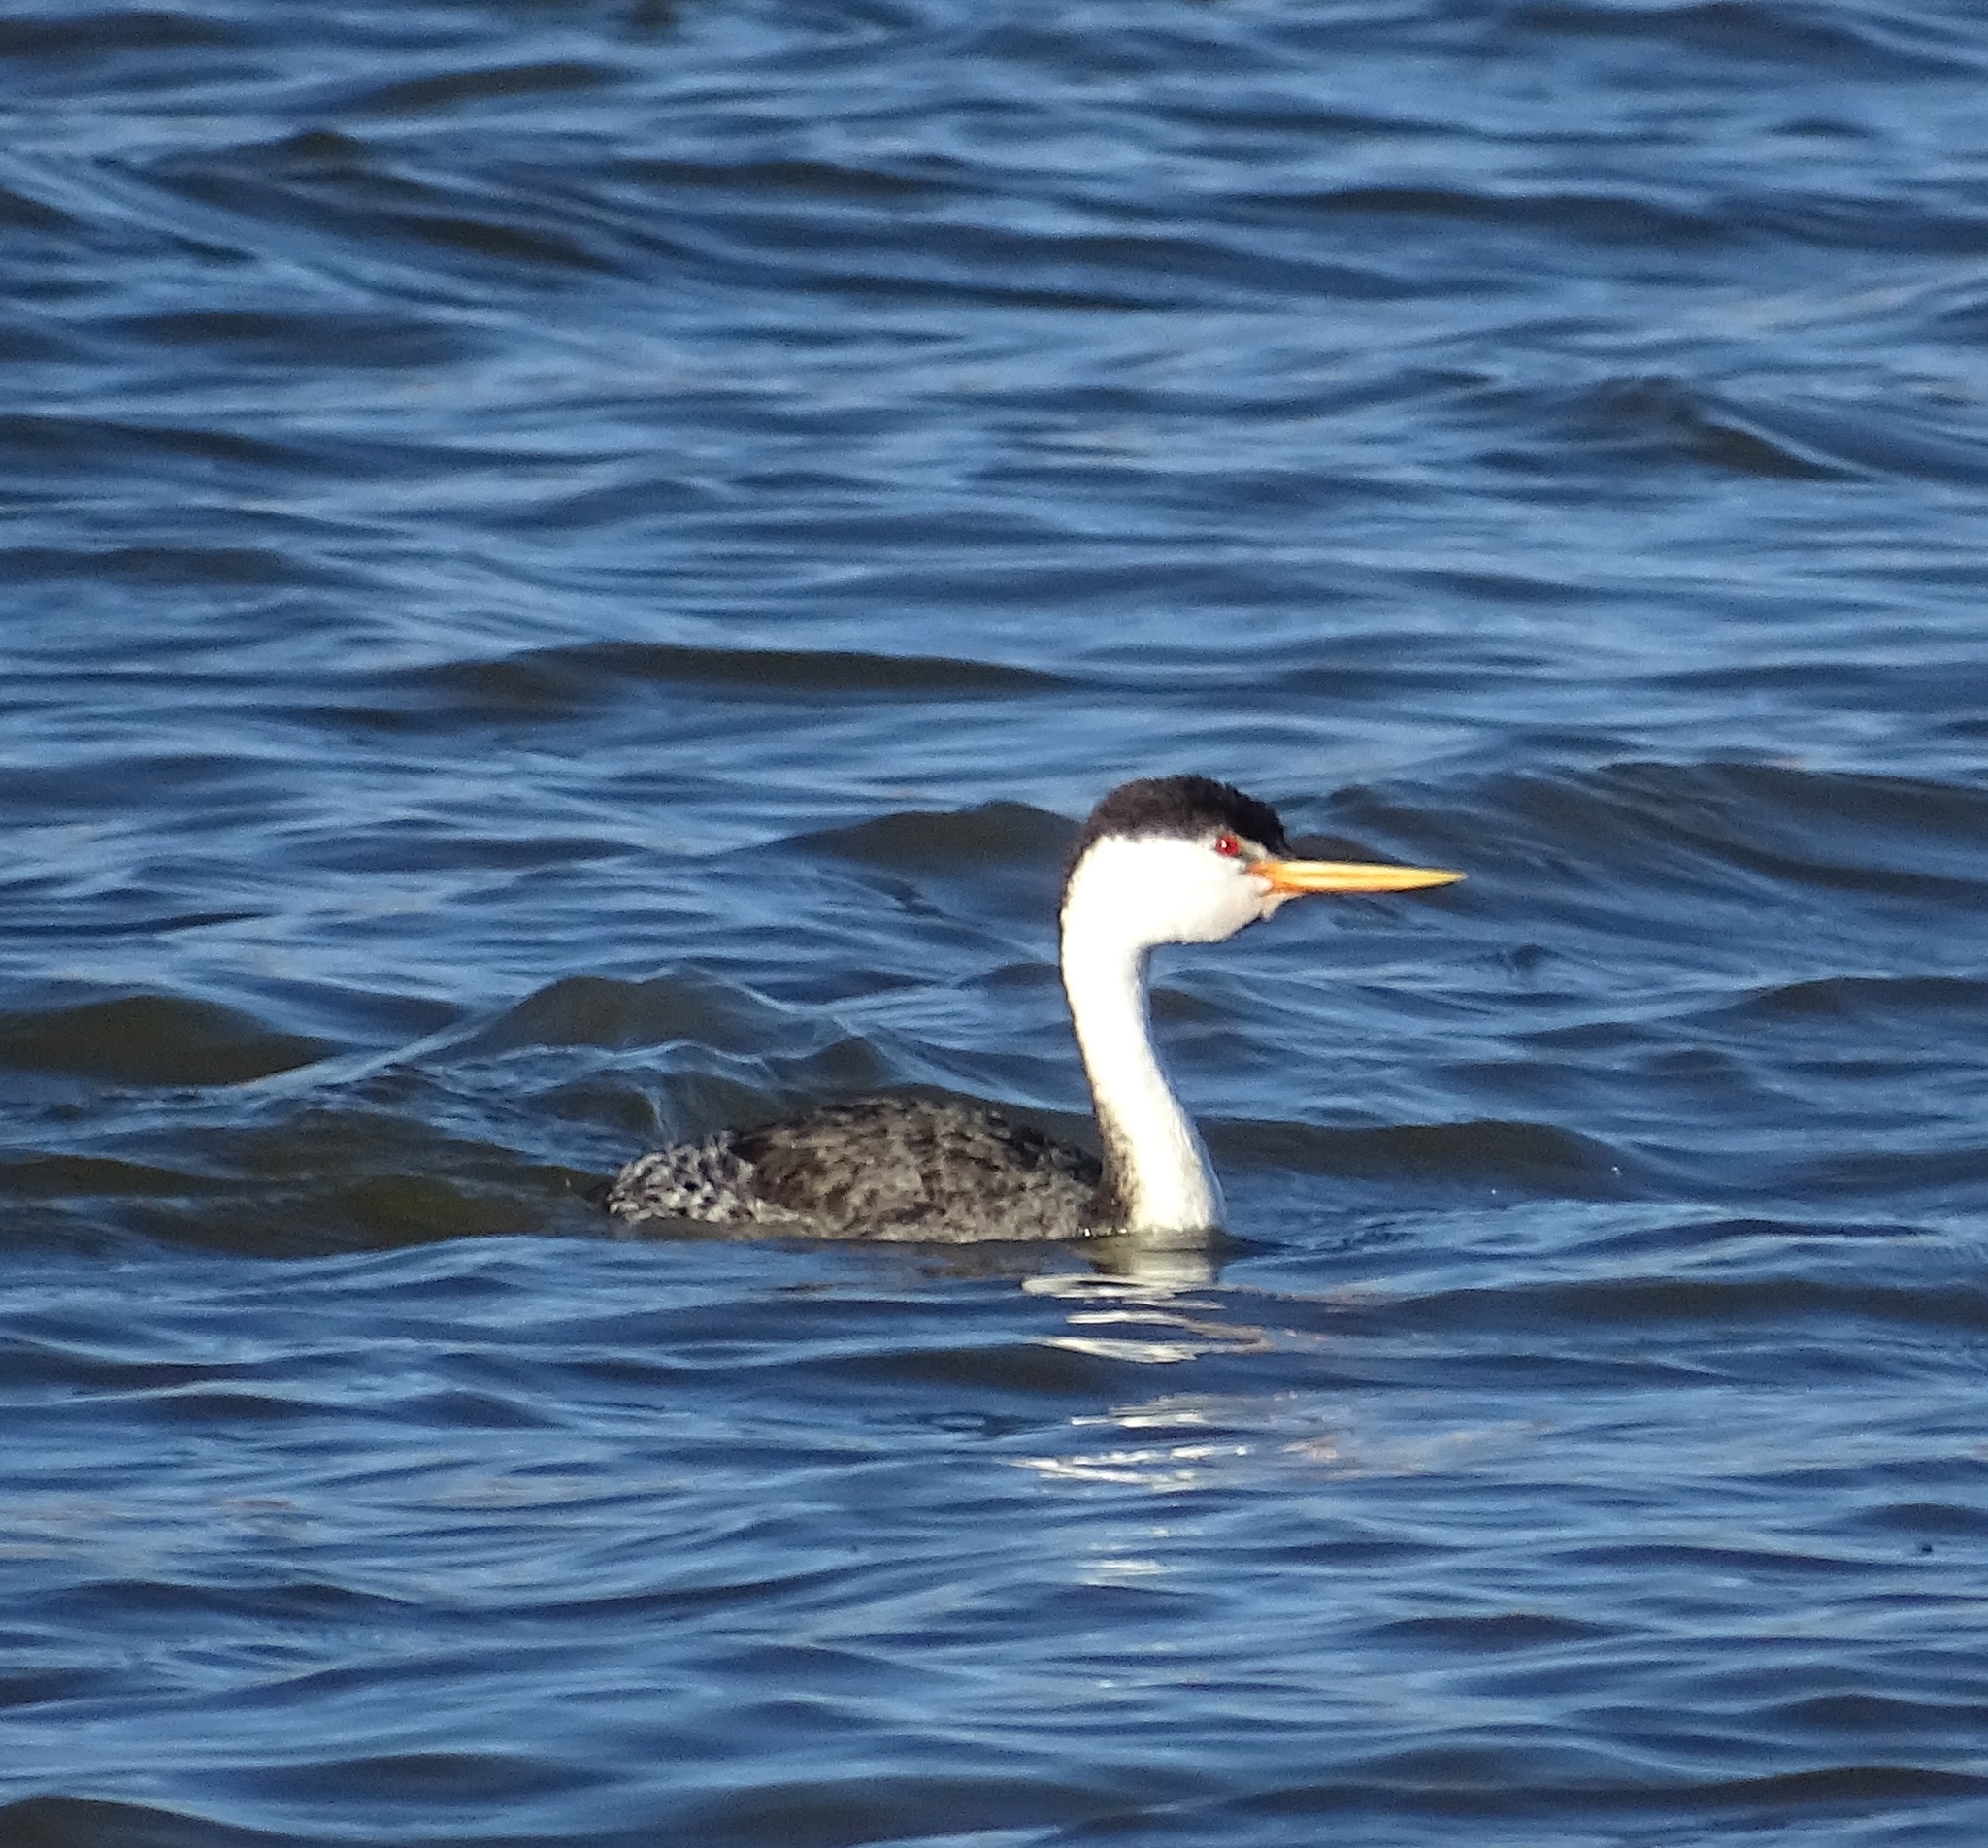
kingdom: Animalia
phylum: Chordata
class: Aves
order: Podicipediformes
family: Podicipedidae
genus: Aechmophorus
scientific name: Aechmophorus clarkii
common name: Clark's grebe
